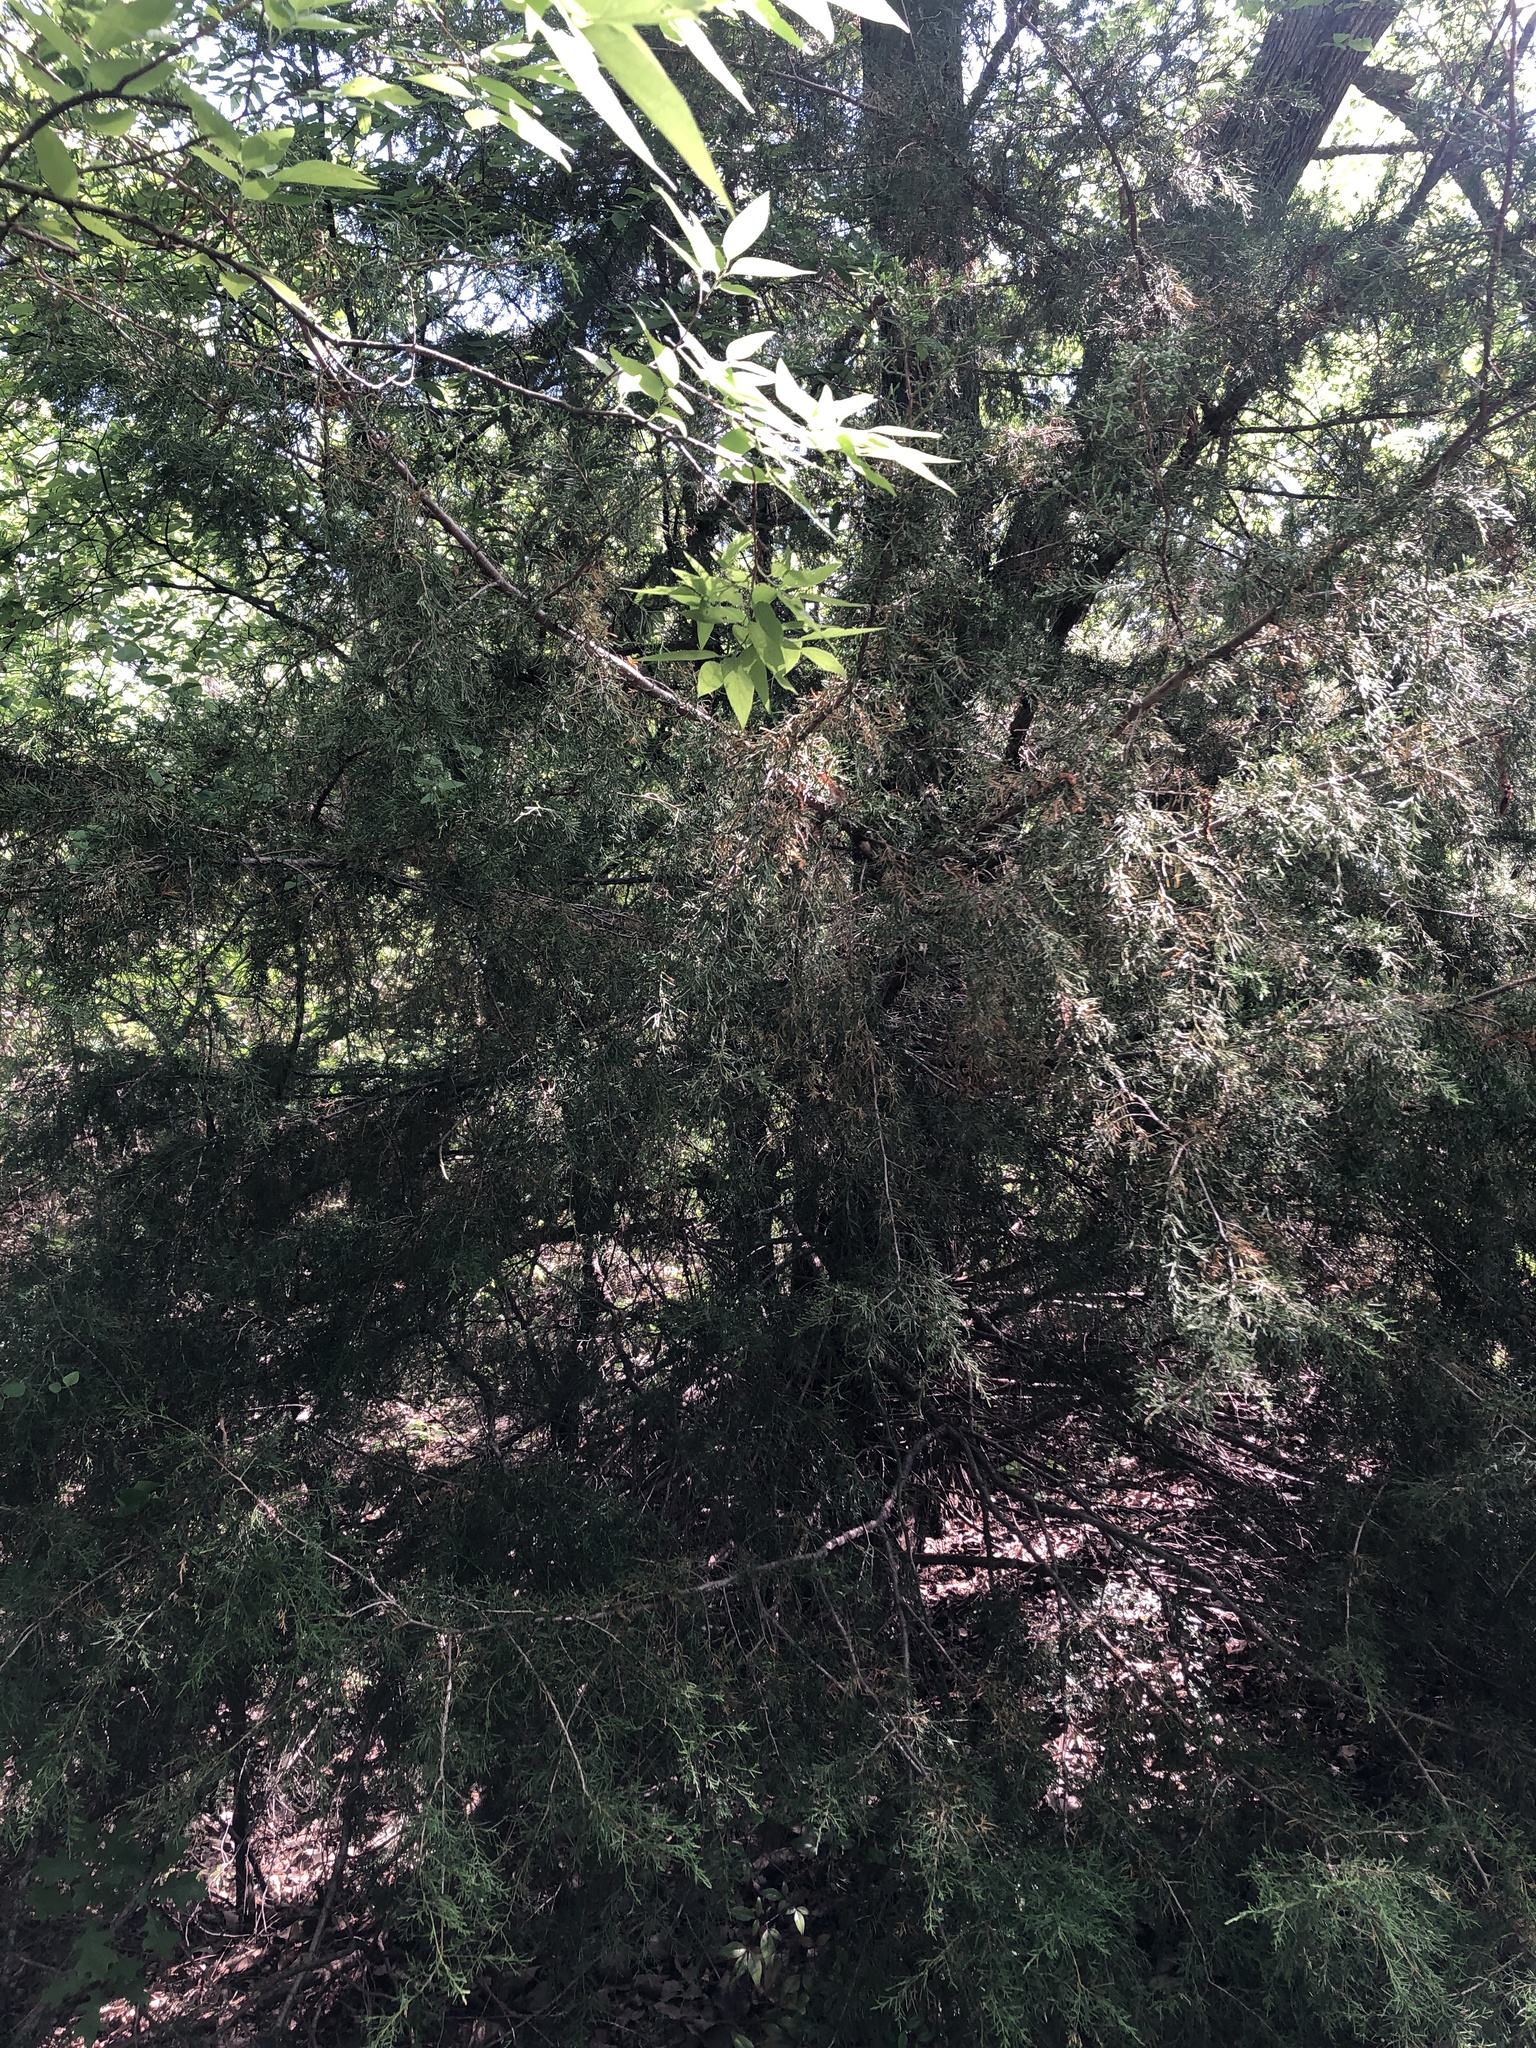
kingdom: Plantae
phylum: Tracheophyta
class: Pinopsida
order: Pinales
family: Cupressaceae
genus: Juniperus
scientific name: Juniperus virginiana
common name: Red juniper
